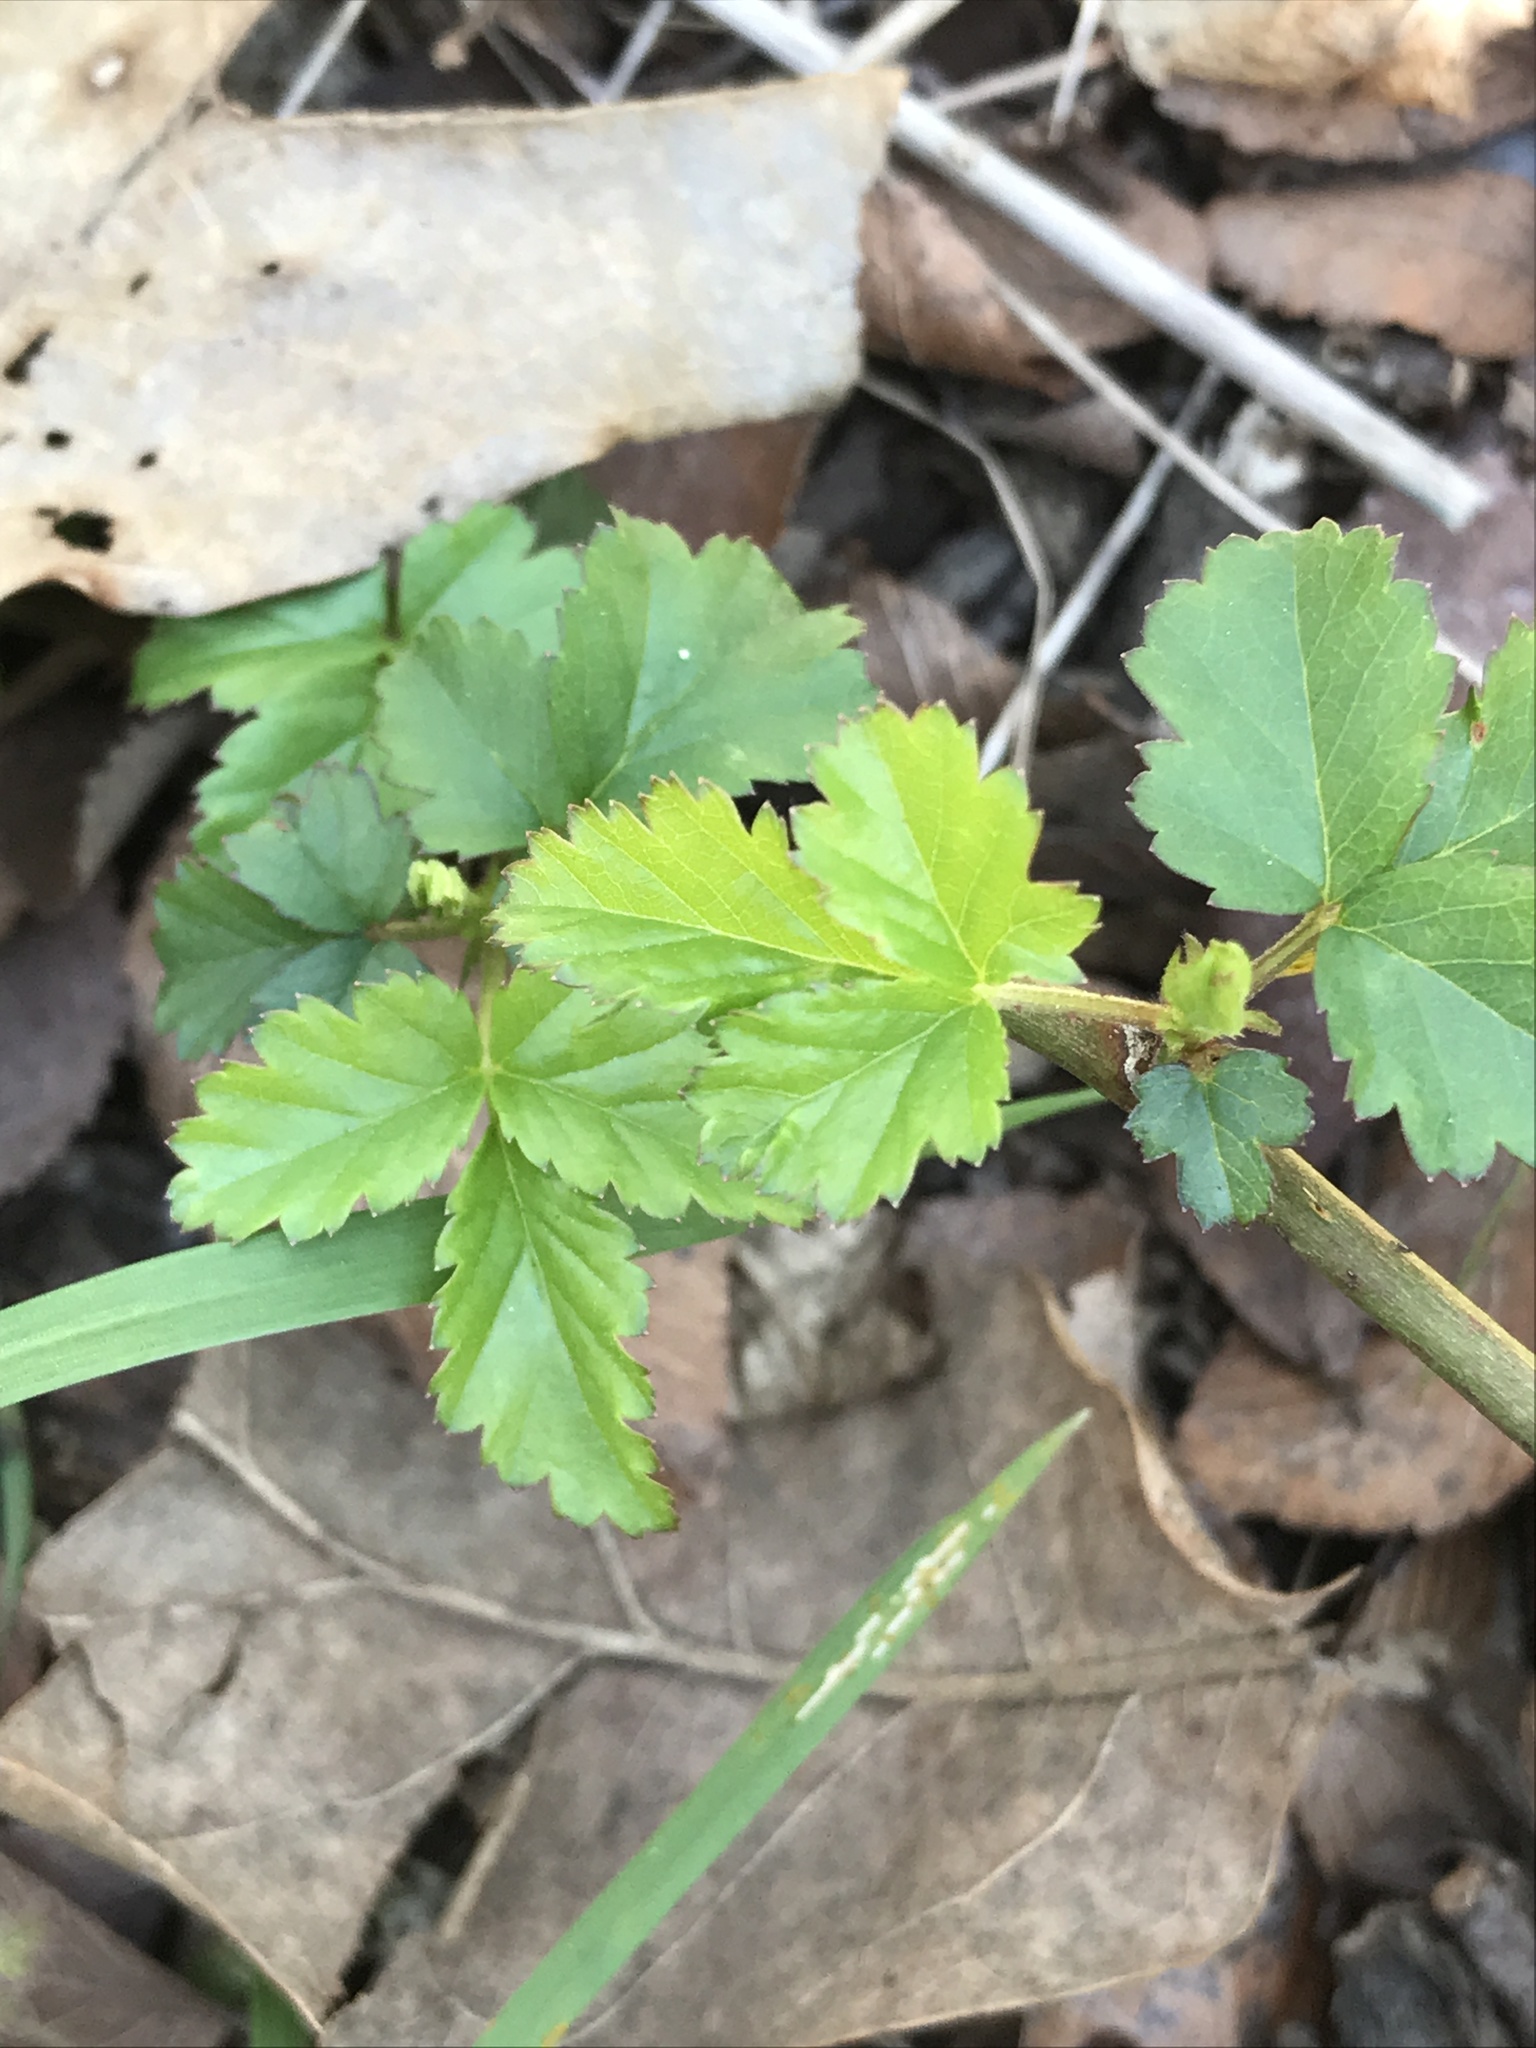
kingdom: Plantae
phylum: Tracheophyta
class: Magnoliopsida
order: Rosales
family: Rosaceae
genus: Rubus
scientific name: Rubus trivialis
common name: Southern dewberry
